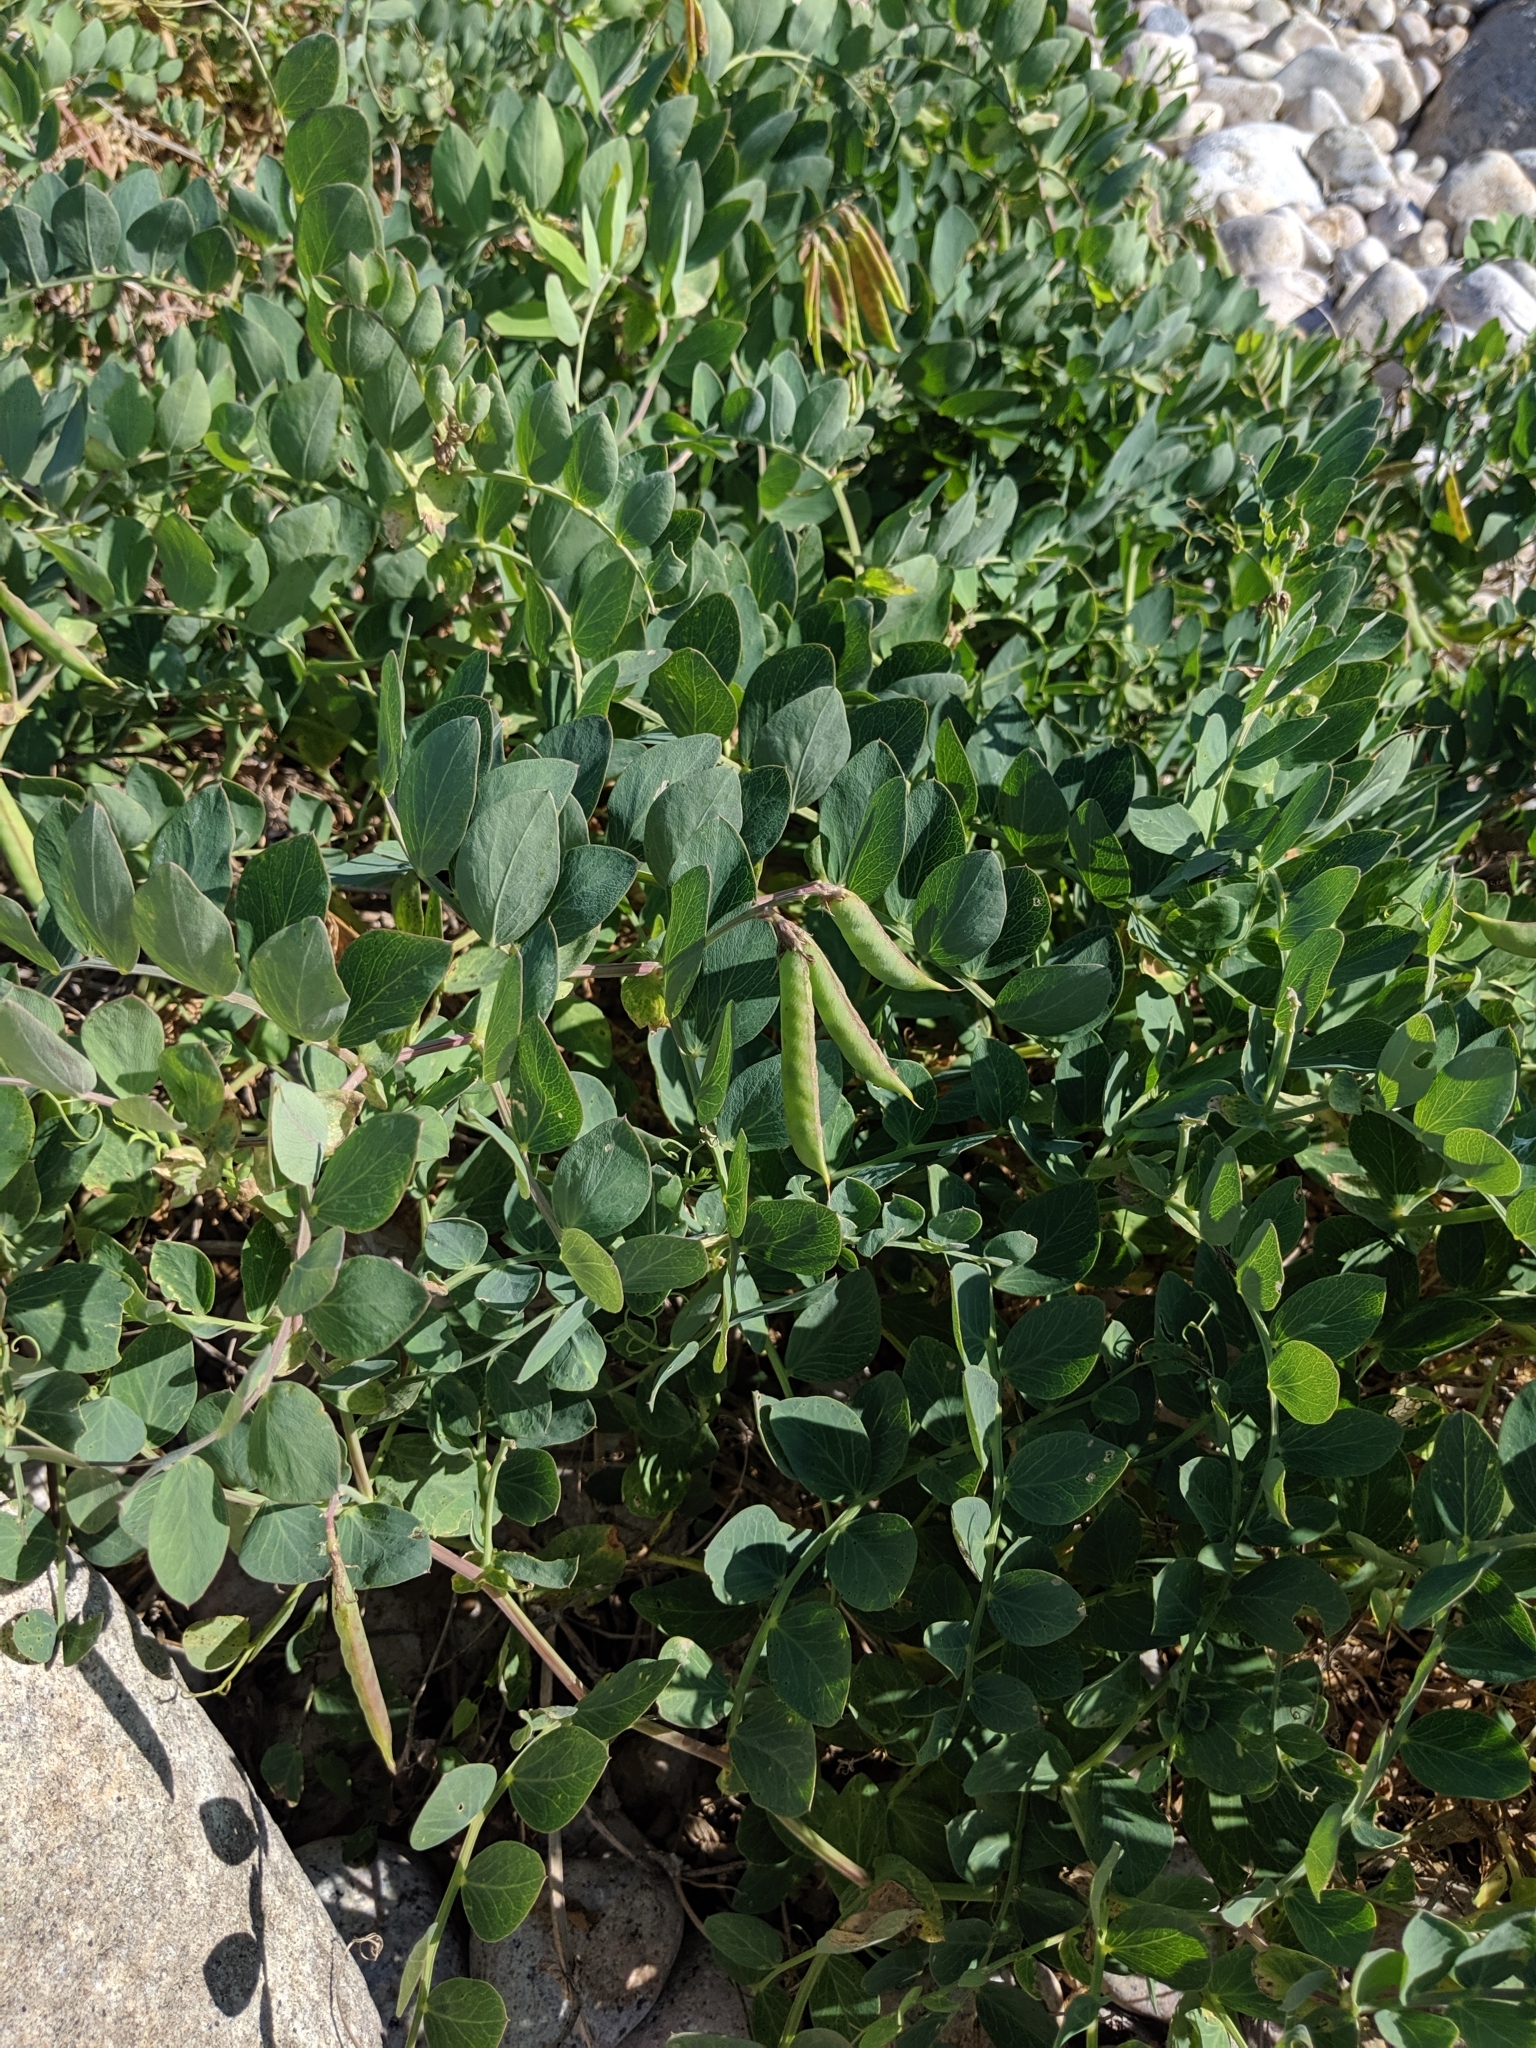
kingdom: Plantae
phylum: Tracheophyta
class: Magnoliopsida
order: Fabales
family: Fabaceae
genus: Lathyrus
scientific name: Lathyrus japonicus
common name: Sea pea
